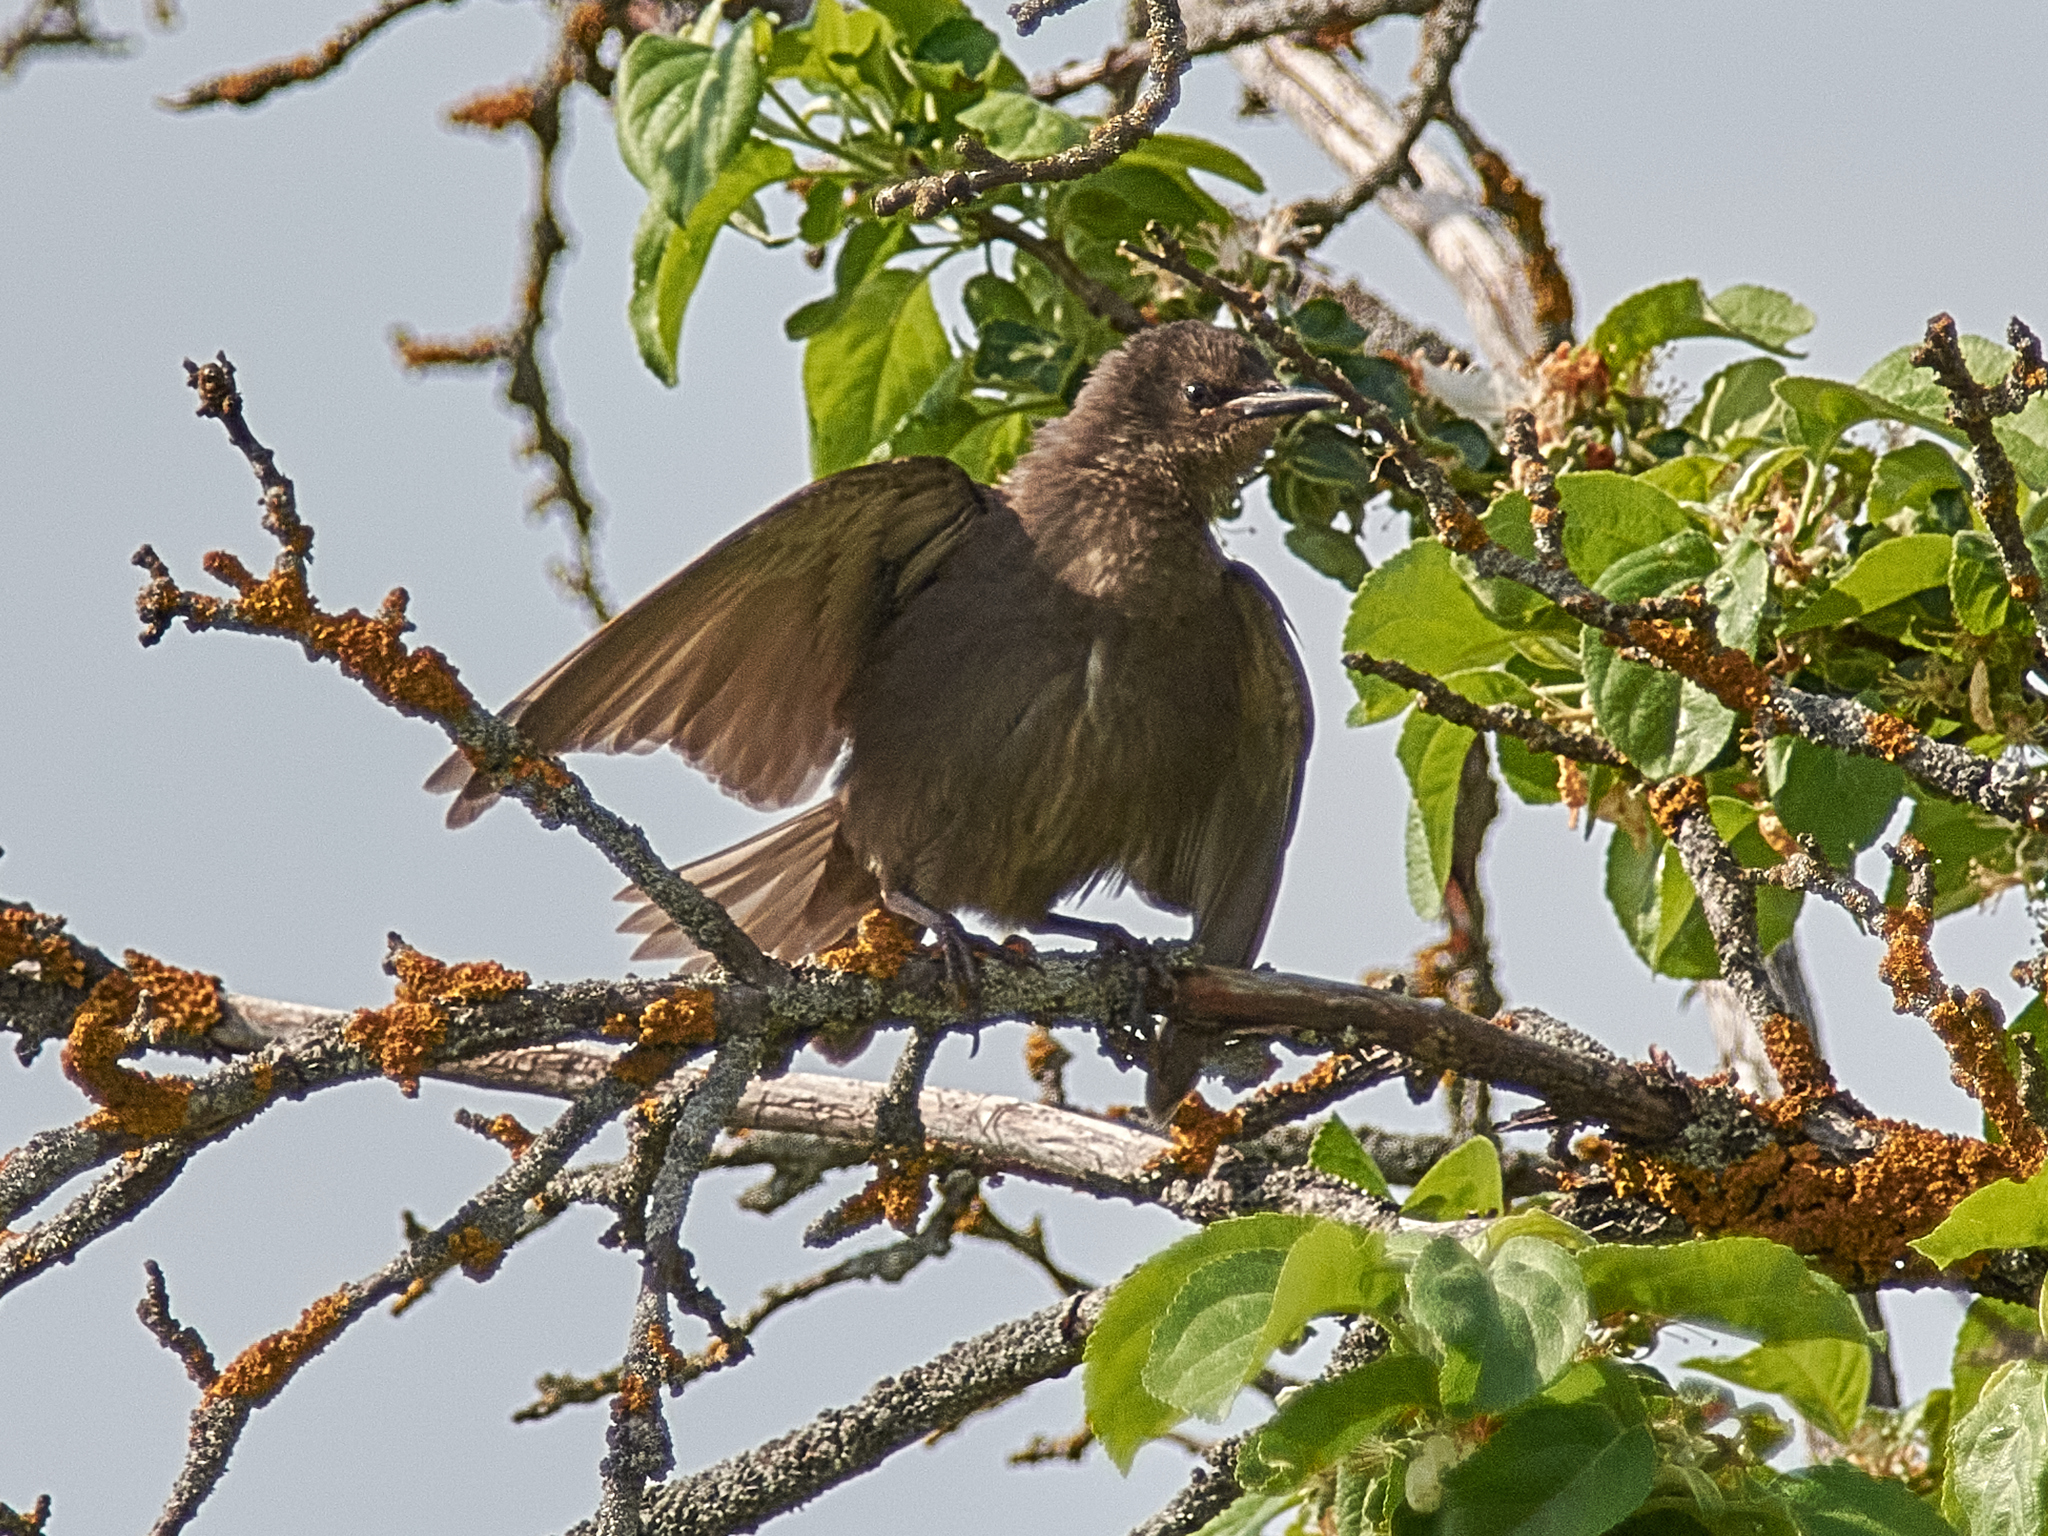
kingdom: Animalia
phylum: Chordata
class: Aves
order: Passeriformes
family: Sturnidae
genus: Sturnus
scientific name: Sturnus vulgaris
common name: Common starling
